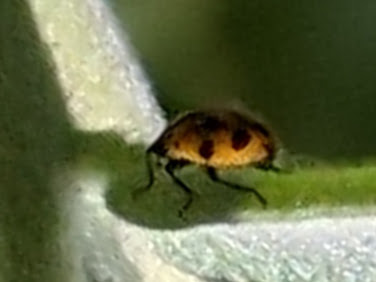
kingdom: Animalia
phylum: Arthropoda
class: Insecta
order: Coleoptera
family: Coccinellidae
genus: Hippodamia
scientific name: Hippodamia convergens
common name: Convergent lady beetle
